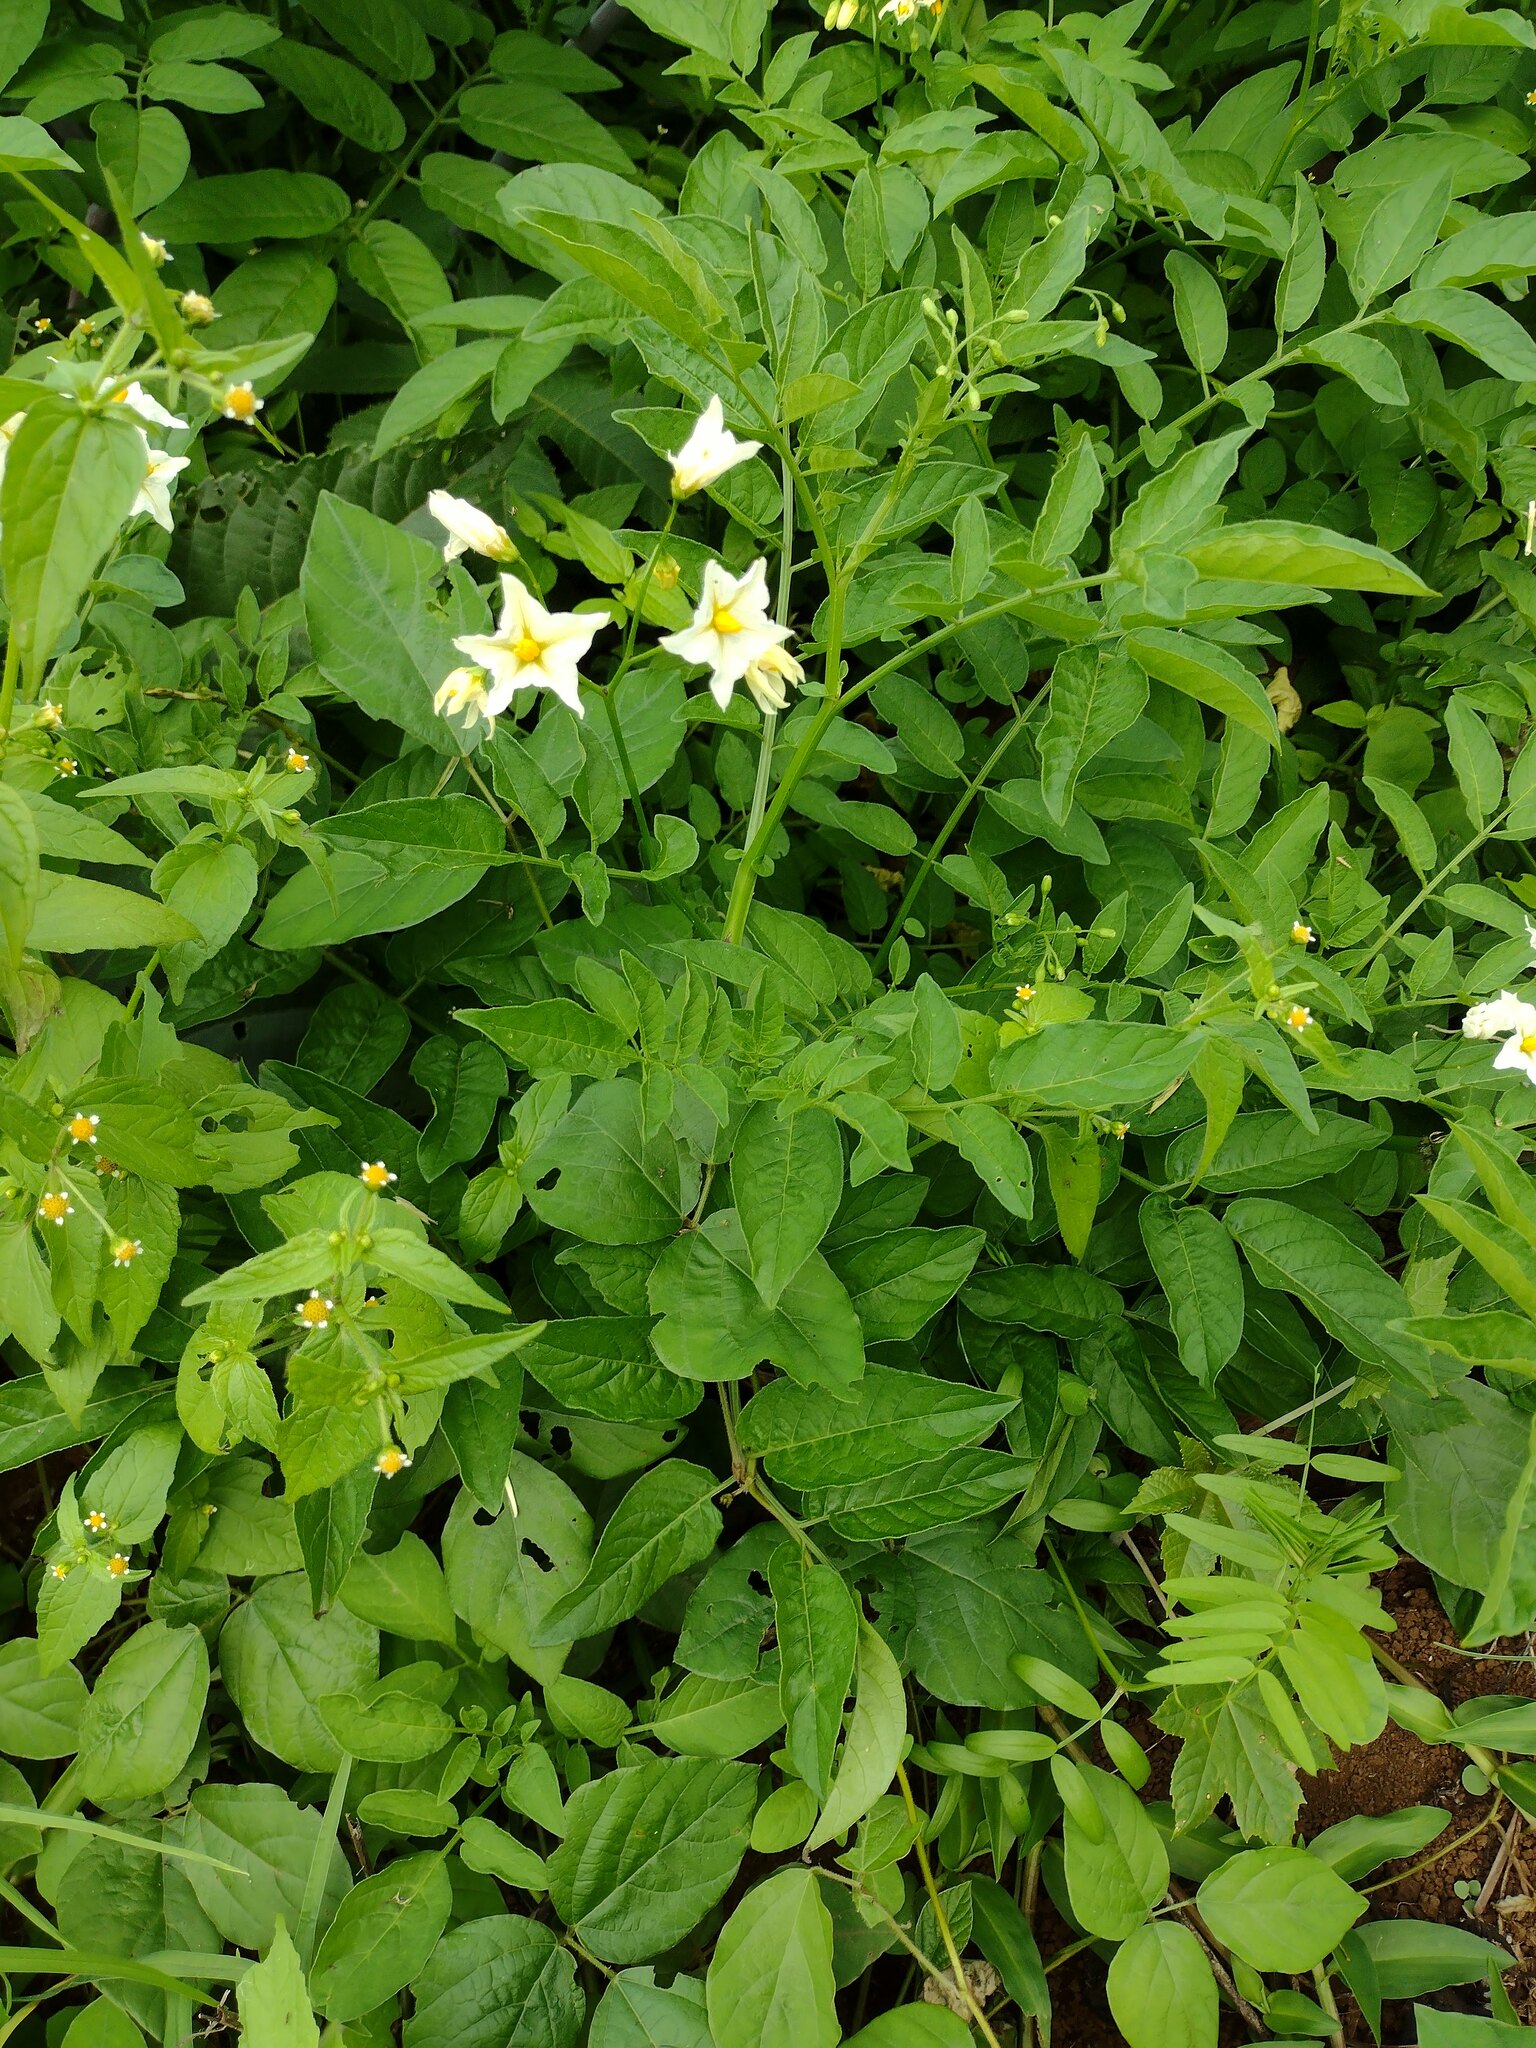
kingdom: Plantae
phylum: Tracheophyta
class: Magnoliopsida
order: Solanales
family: Solanaceae
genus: Solanum
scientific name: Solanum chacoense
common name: Chaco potato
